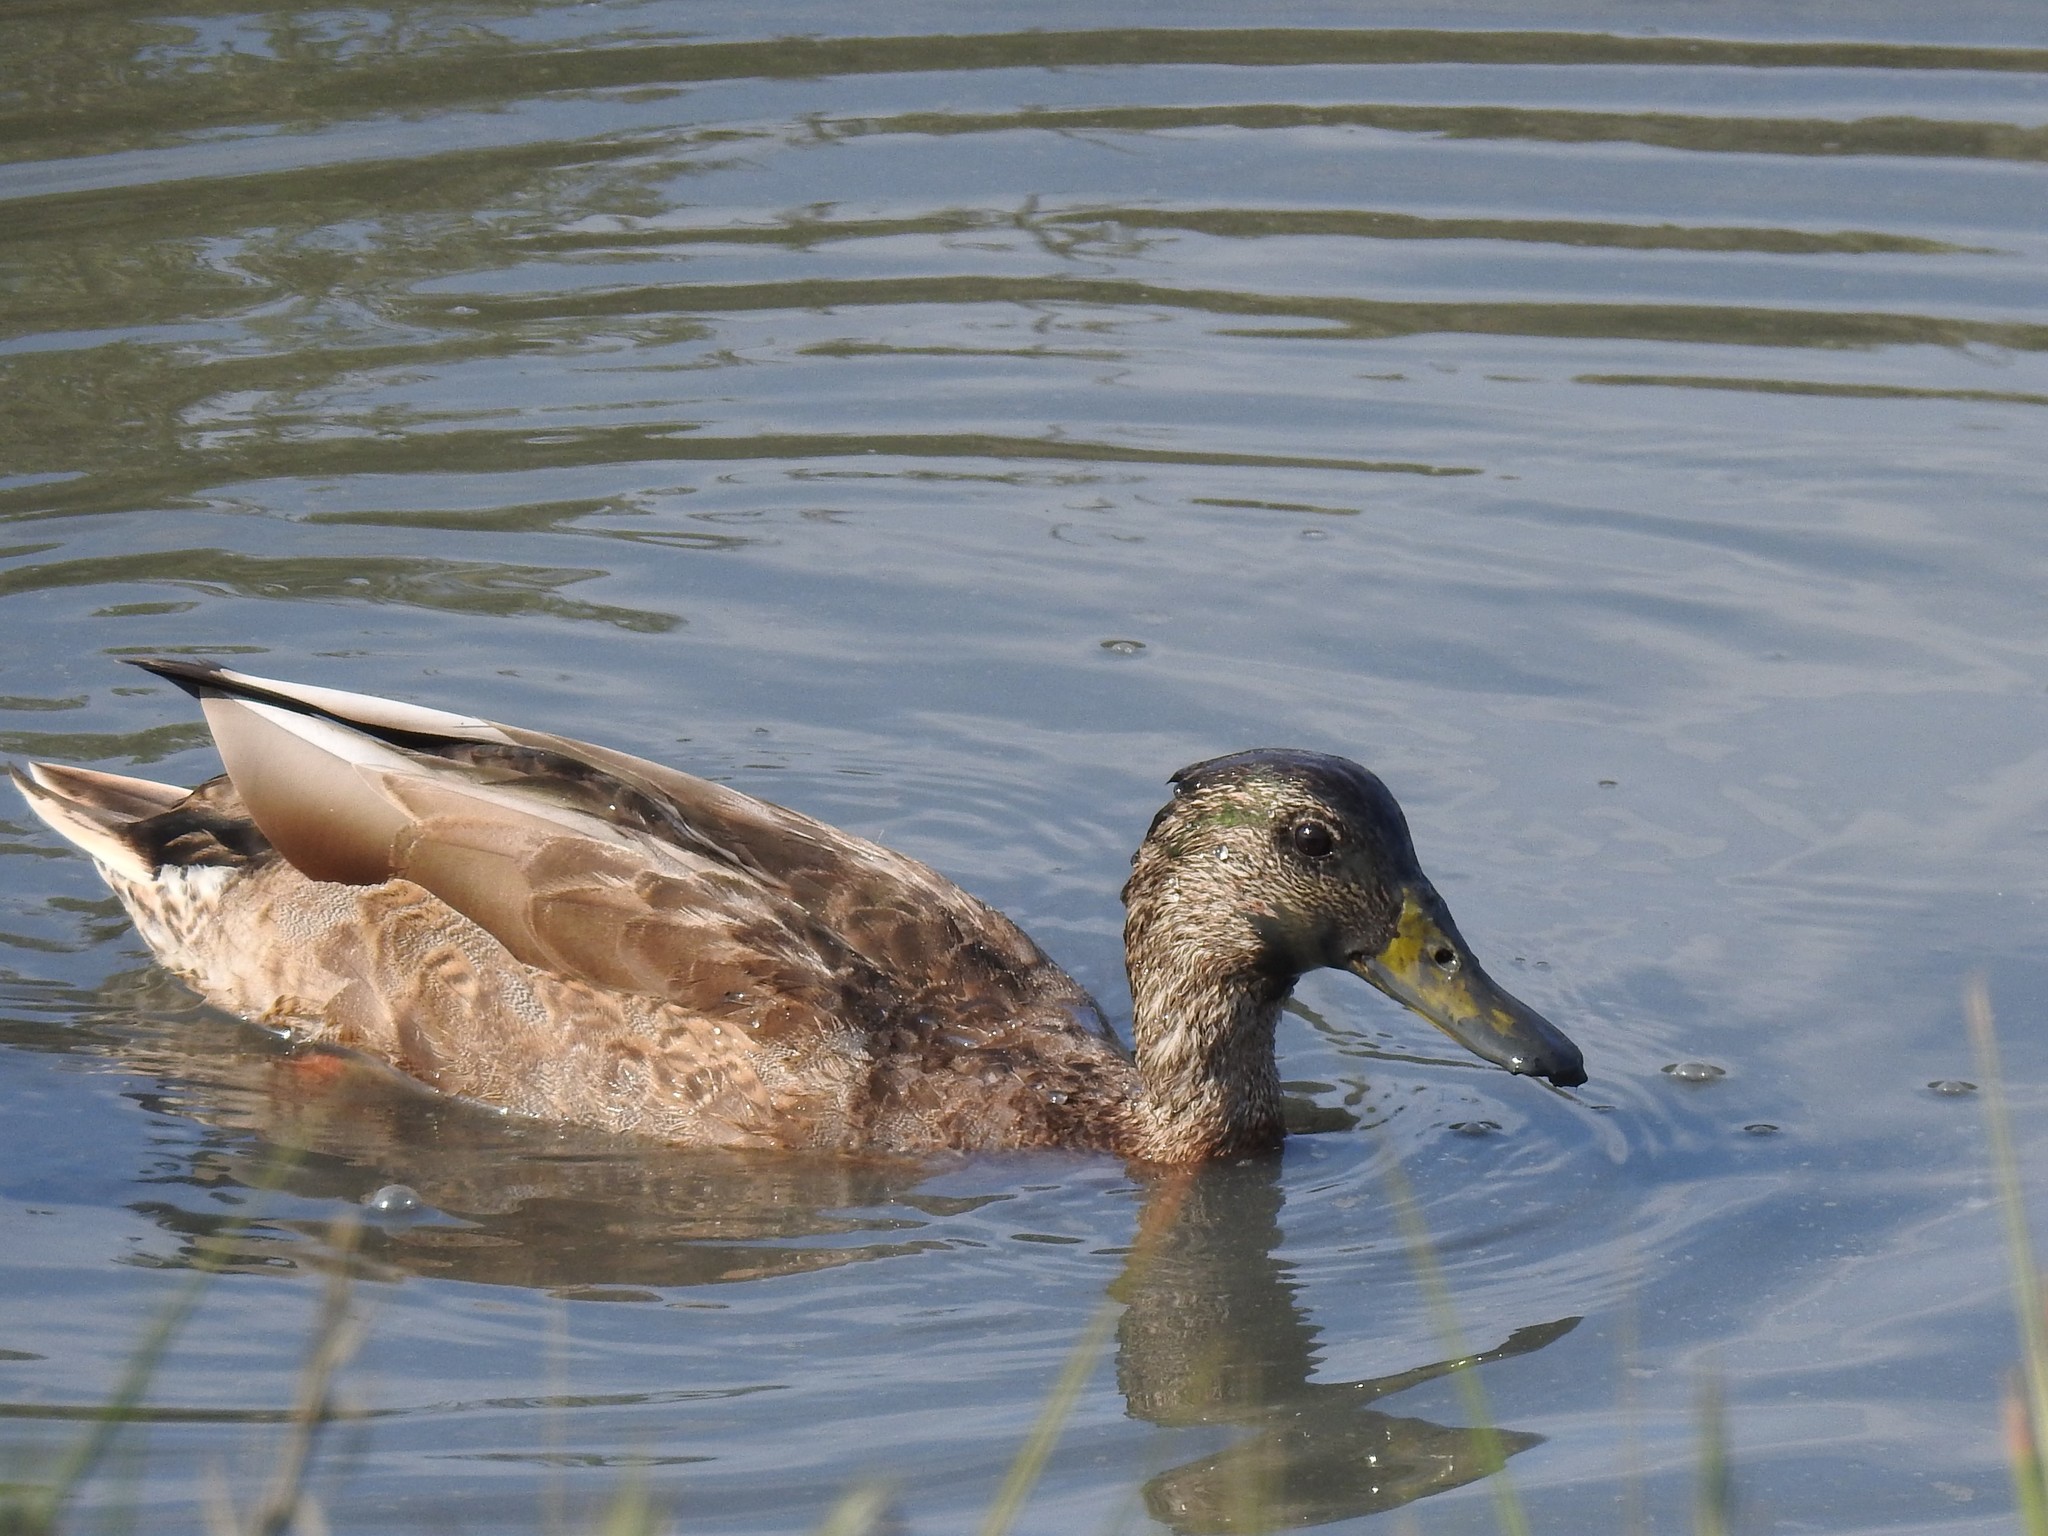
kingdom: Animalia
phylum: Chordata
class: Aves
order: Anseriformes
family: Anatidae
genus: Anas
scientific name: Anas platyrhynchos
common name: Mallard
